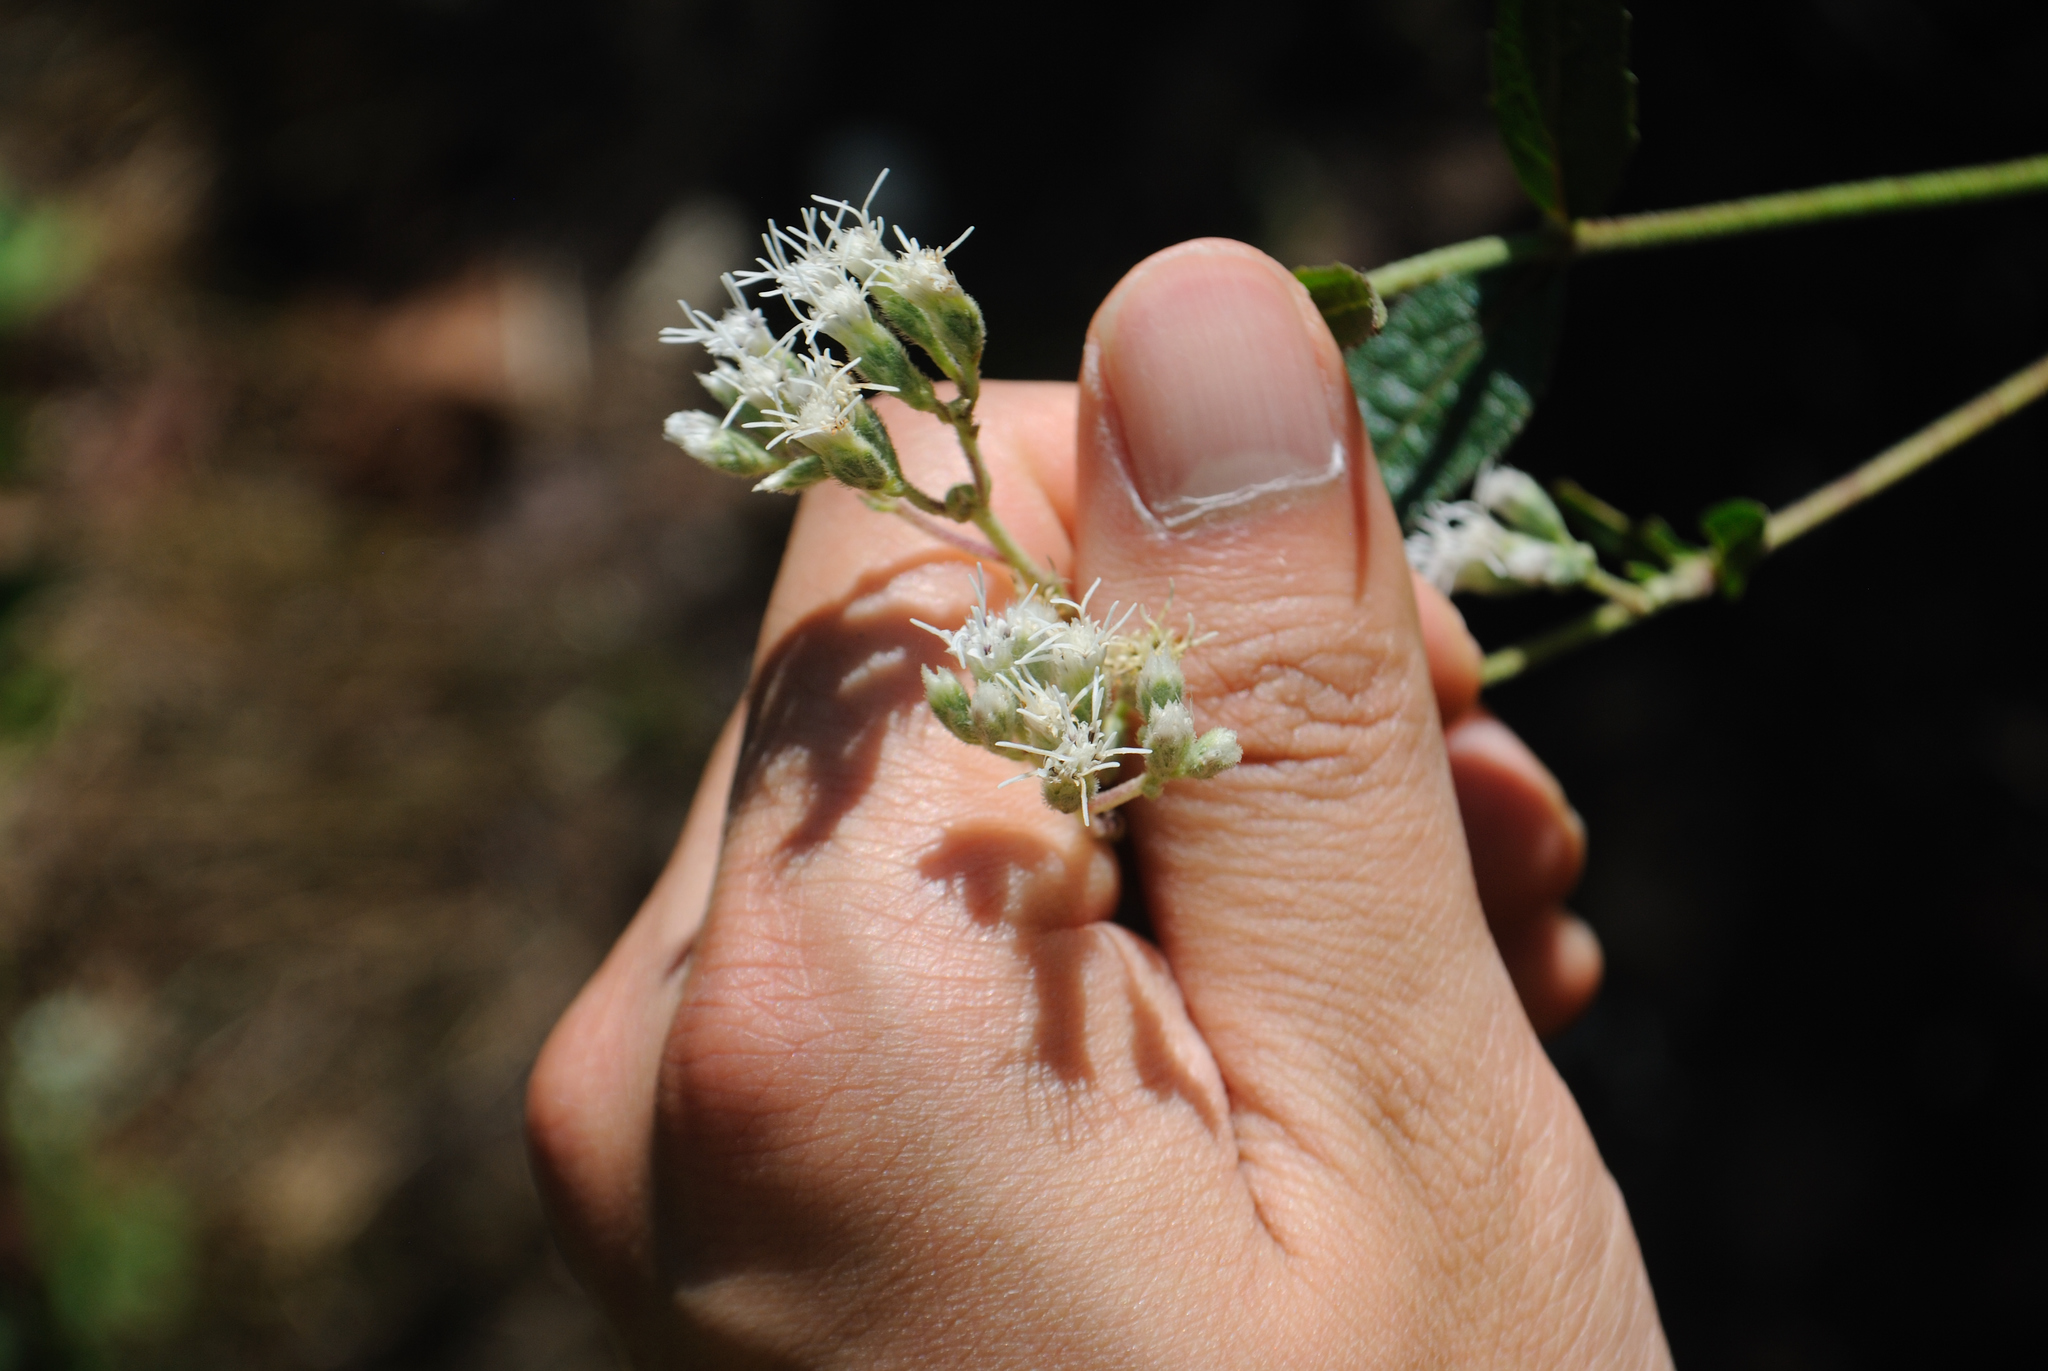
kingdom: Plantae
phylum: Tracheophyta
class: Magnoliopsida
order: Asterales
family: Asteraceae
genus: Eupatorium
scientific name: Eupatorium pilosum
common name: Rough boneset
